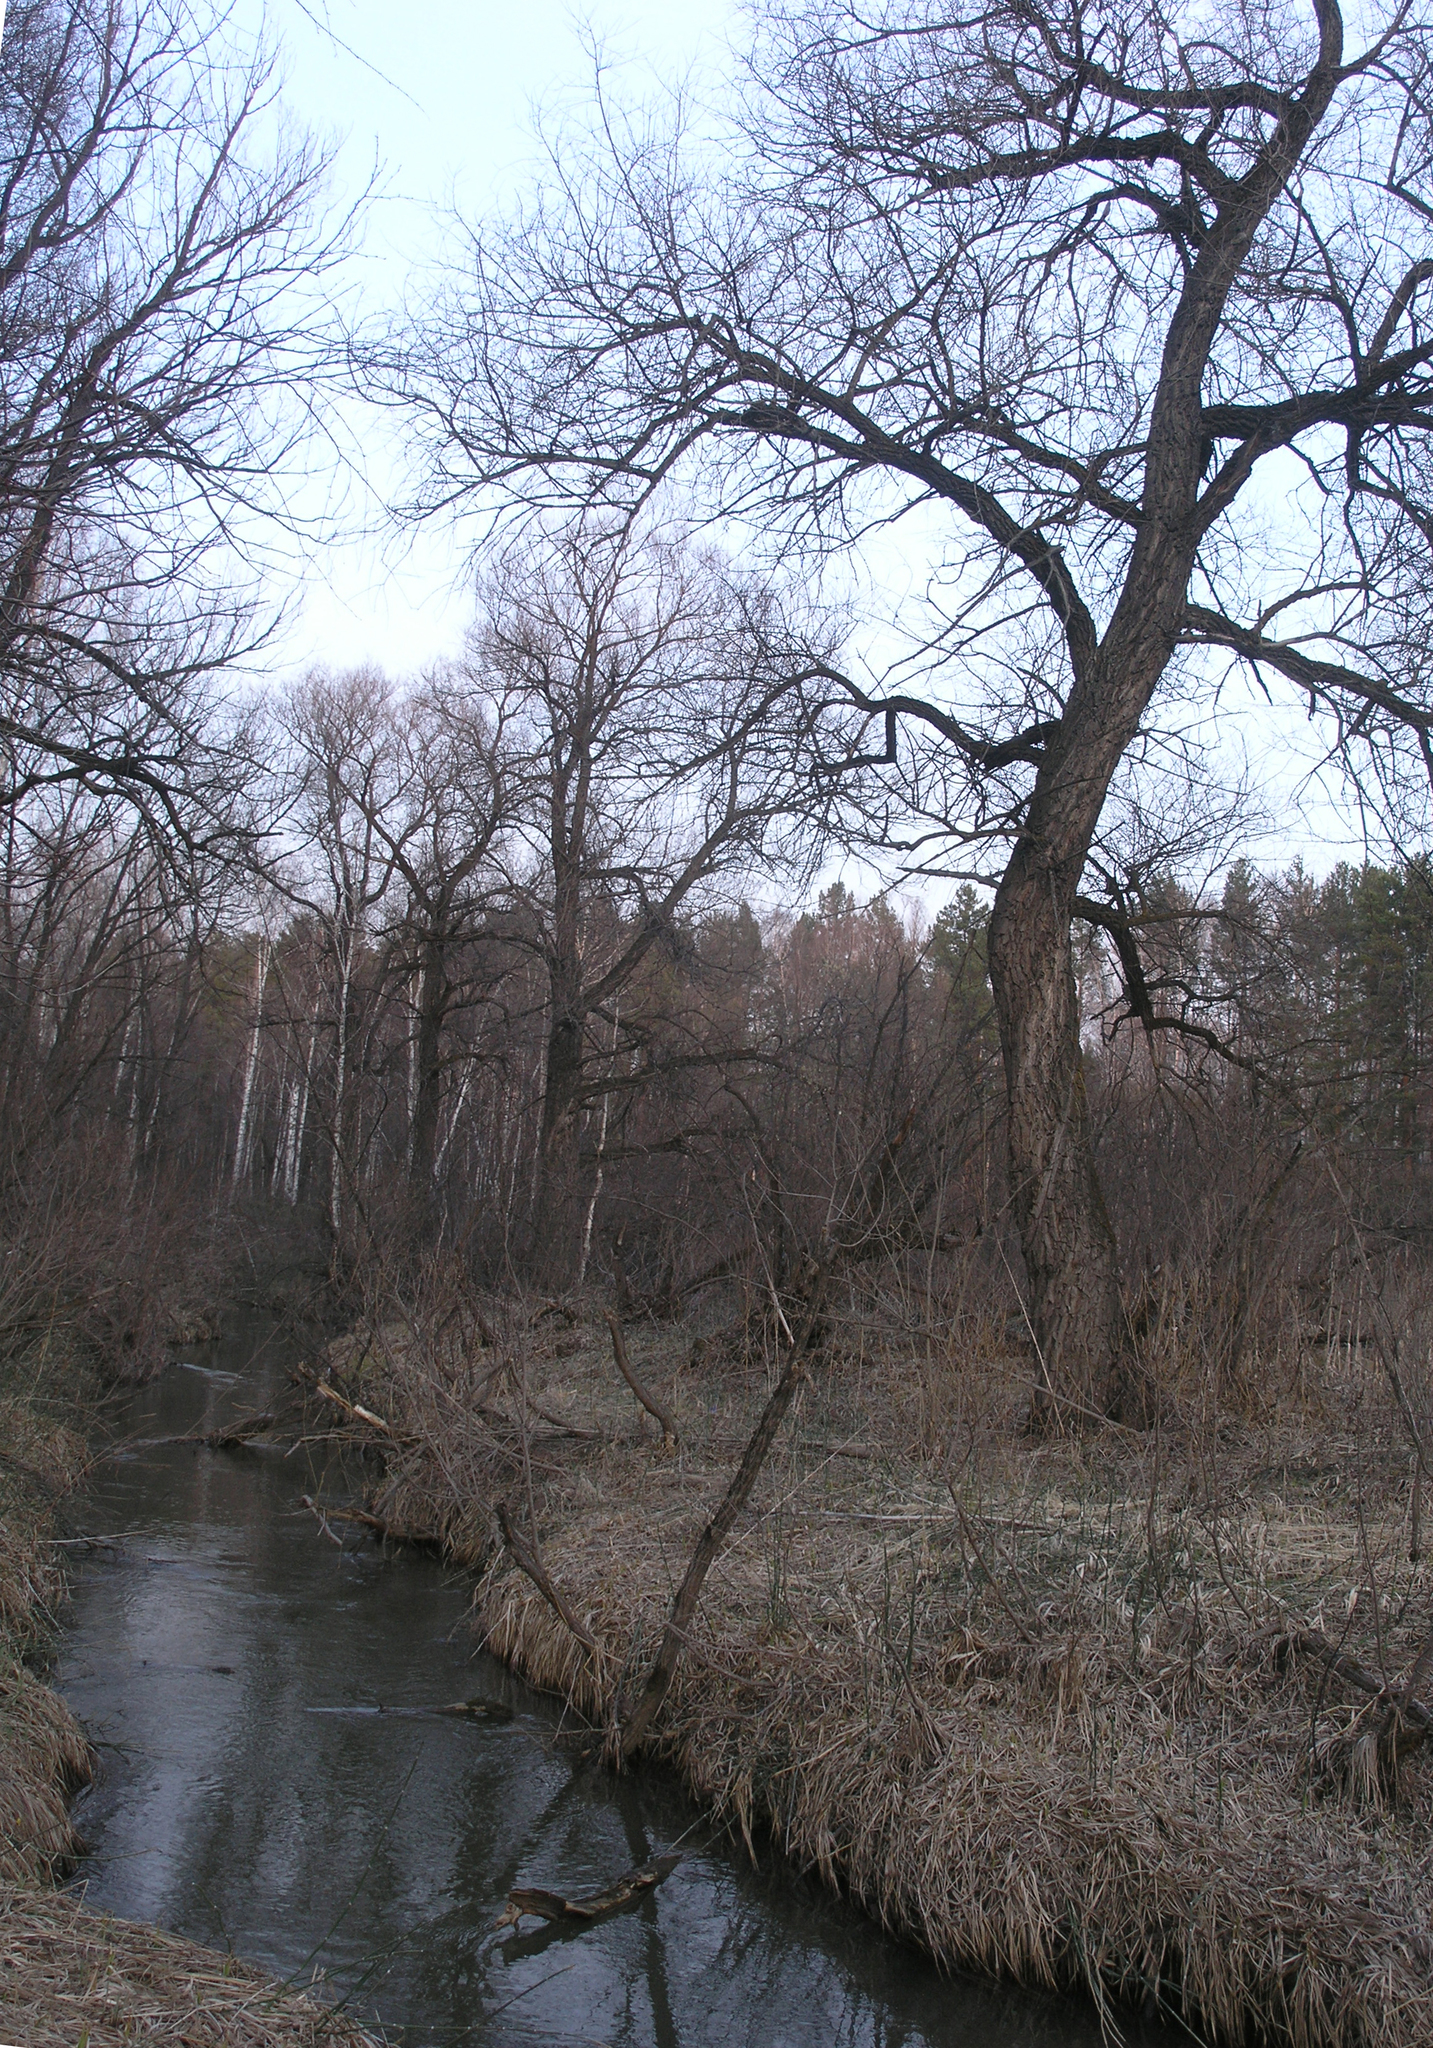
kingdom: Plantae
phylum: Tracheophyta
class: Magnoliopsida
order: Malpighiales
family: Salicaceae
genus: Salix
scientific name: Salix alba
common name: White willow
